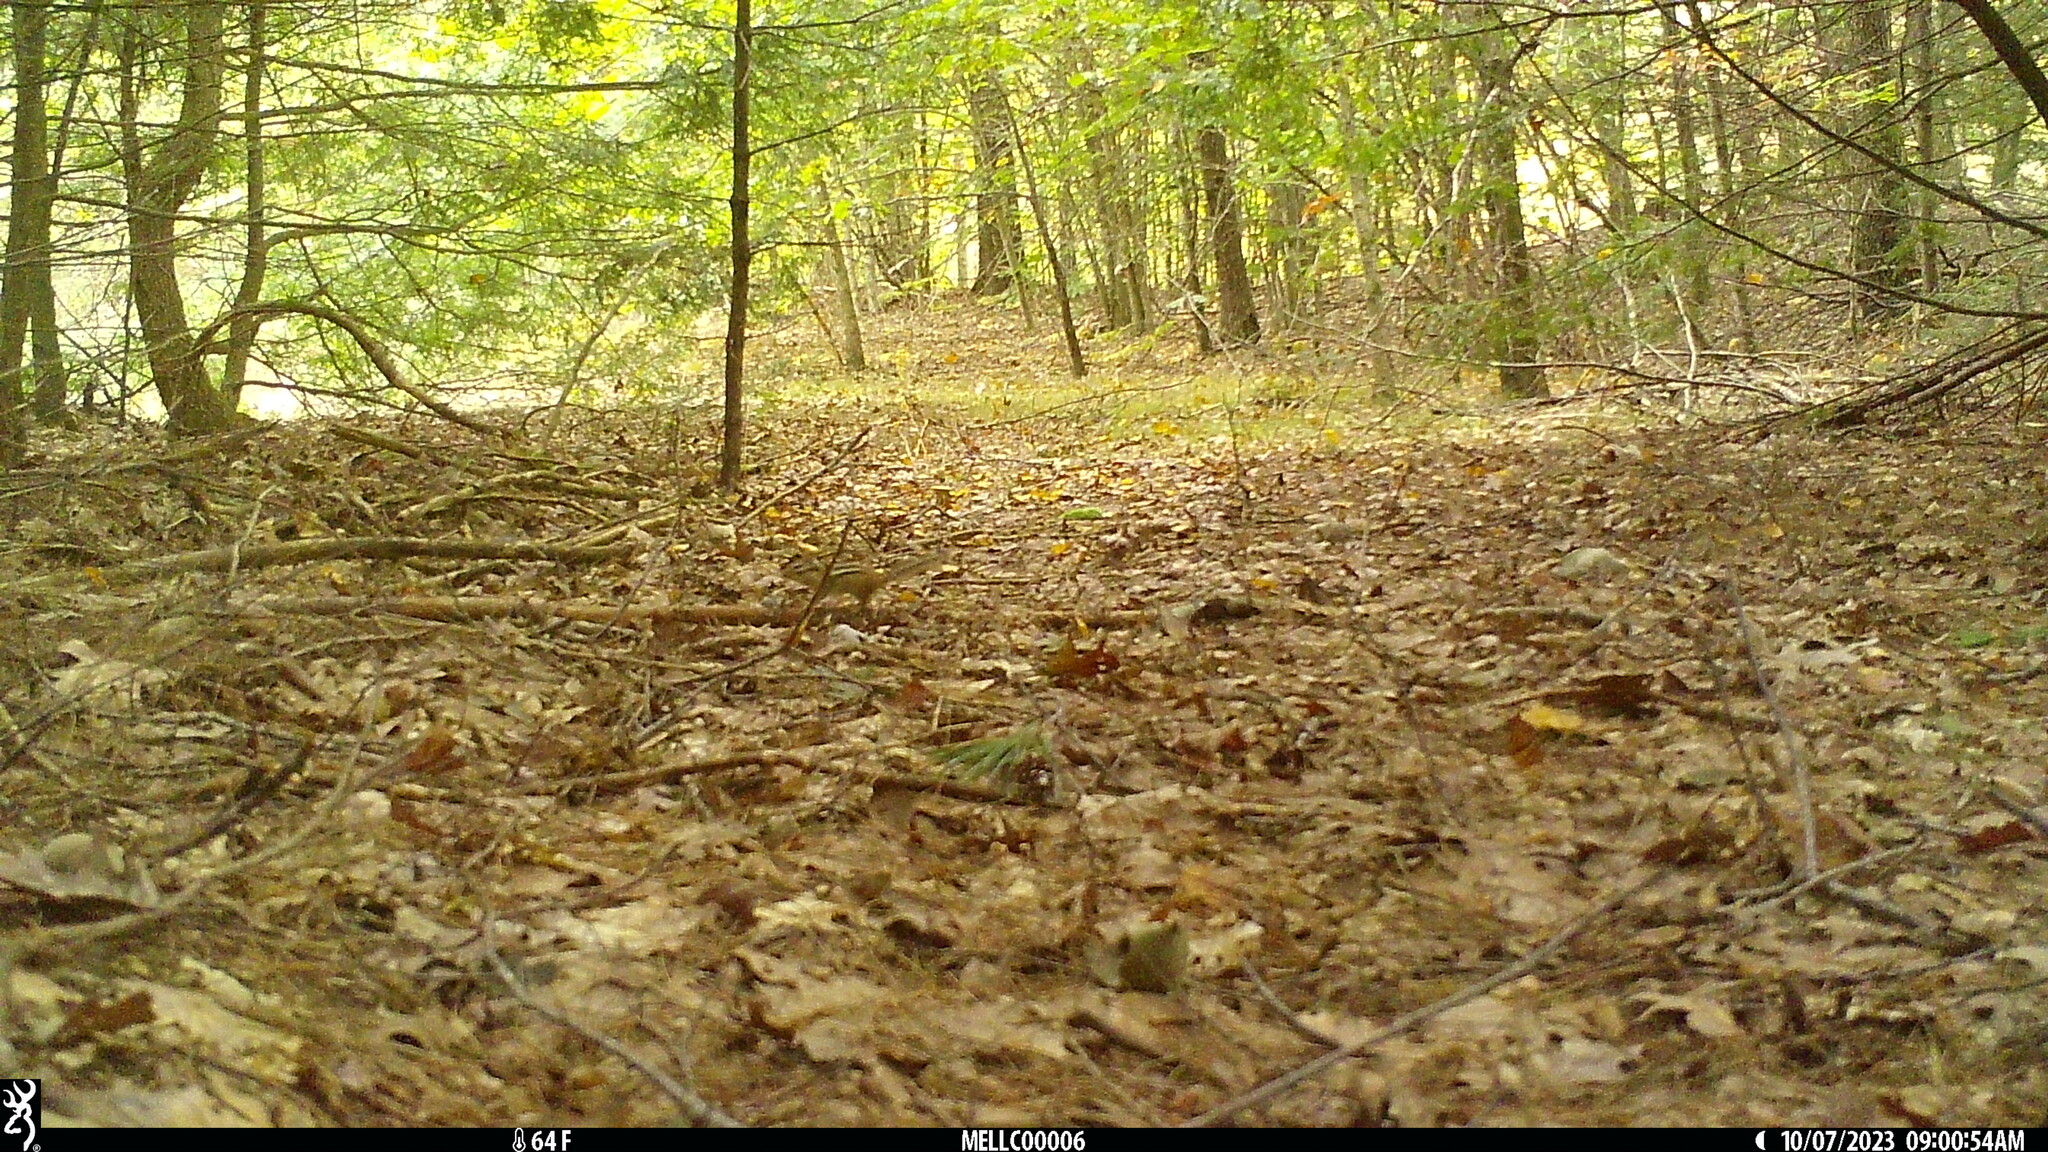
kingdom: Animalia
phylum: Chordata
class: Mammalia
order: Rodentia
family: Sciuridae
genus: Tamias
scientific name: Tamias striatus
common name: Eastern chipmunk
